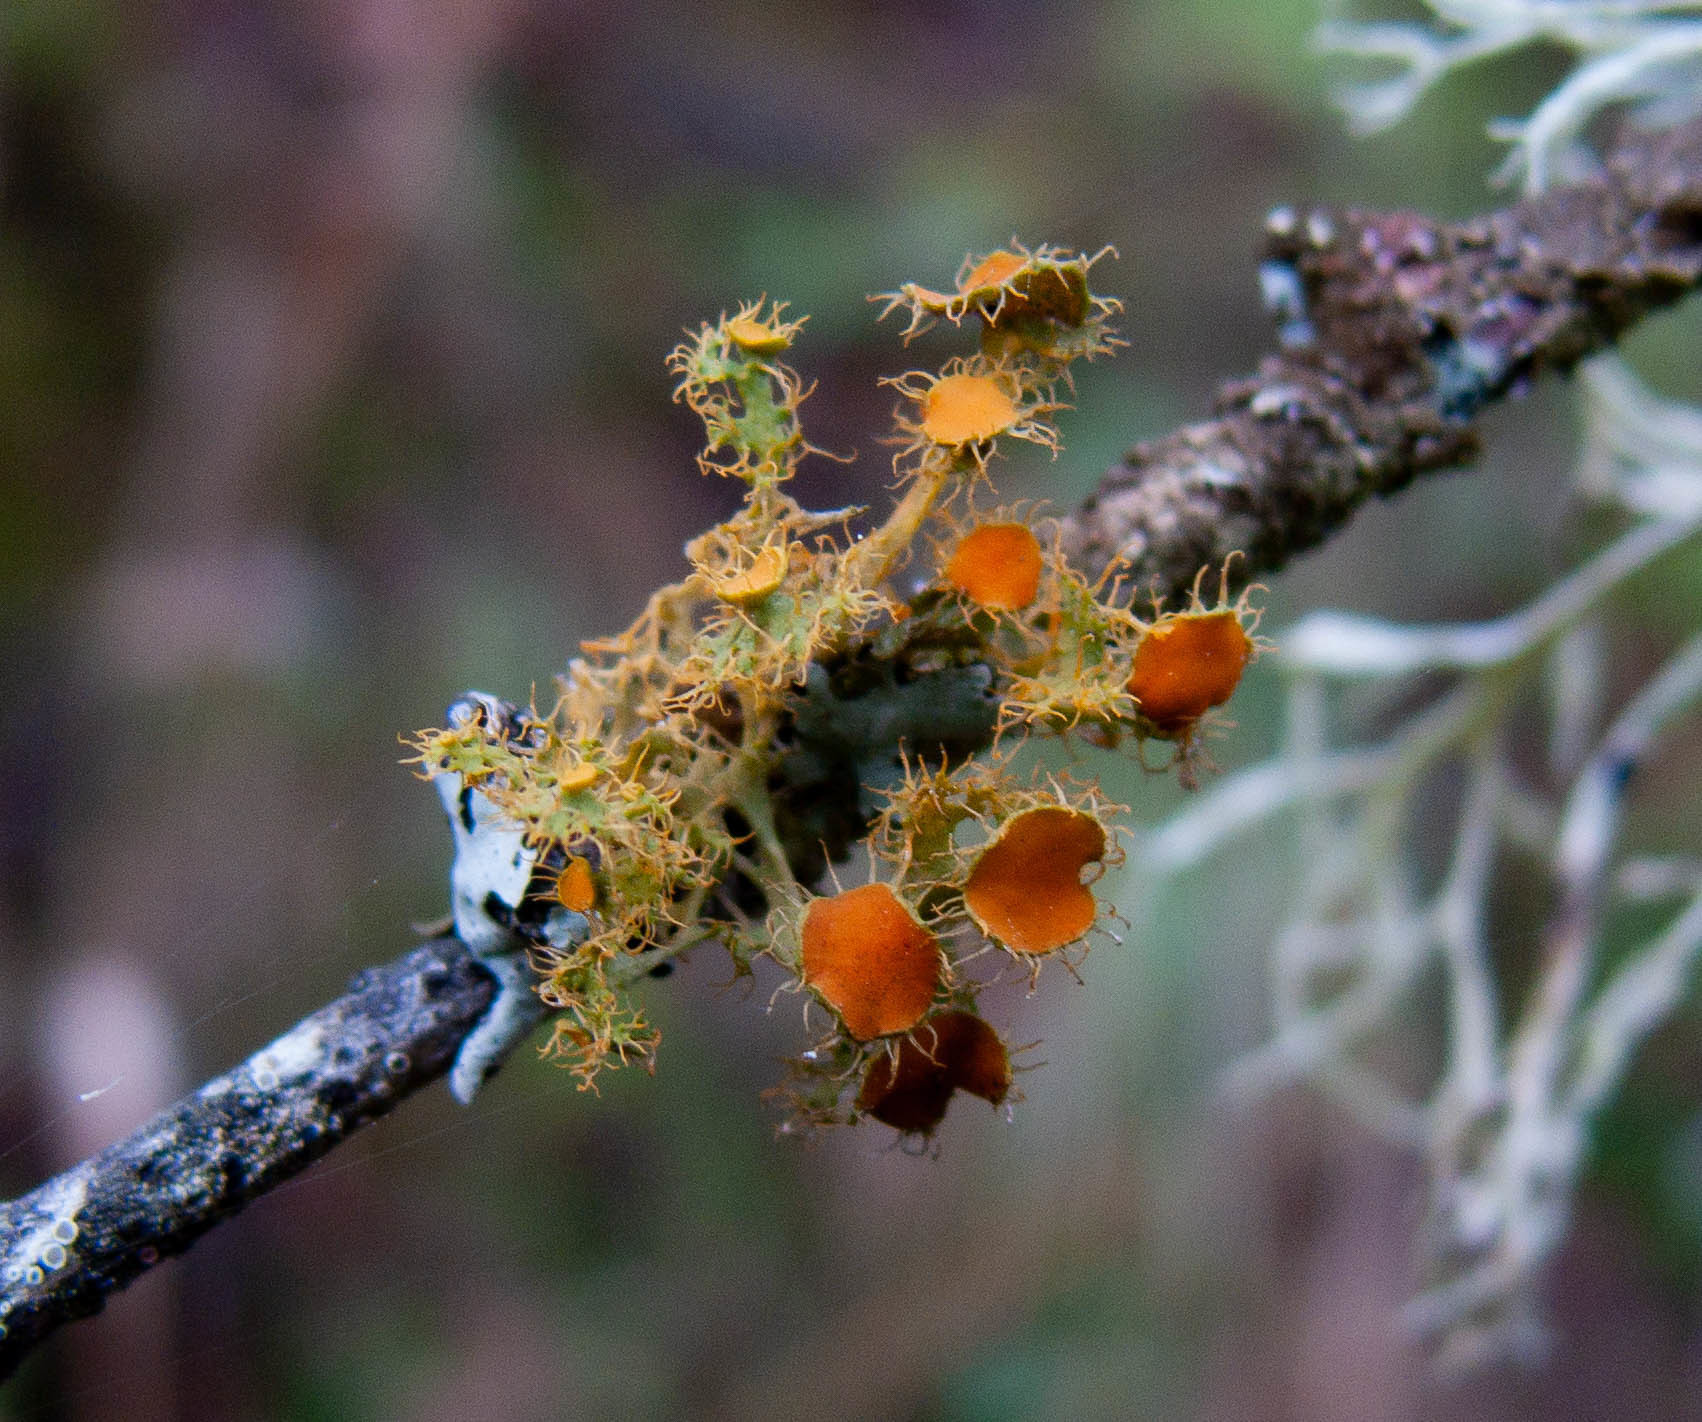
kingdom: Fungi
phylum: Ascomycota
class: Lecanoromycetes
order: Teloschistales
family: Teloschistaceae
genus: Niorma
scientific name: Niorma chrysophthalma
